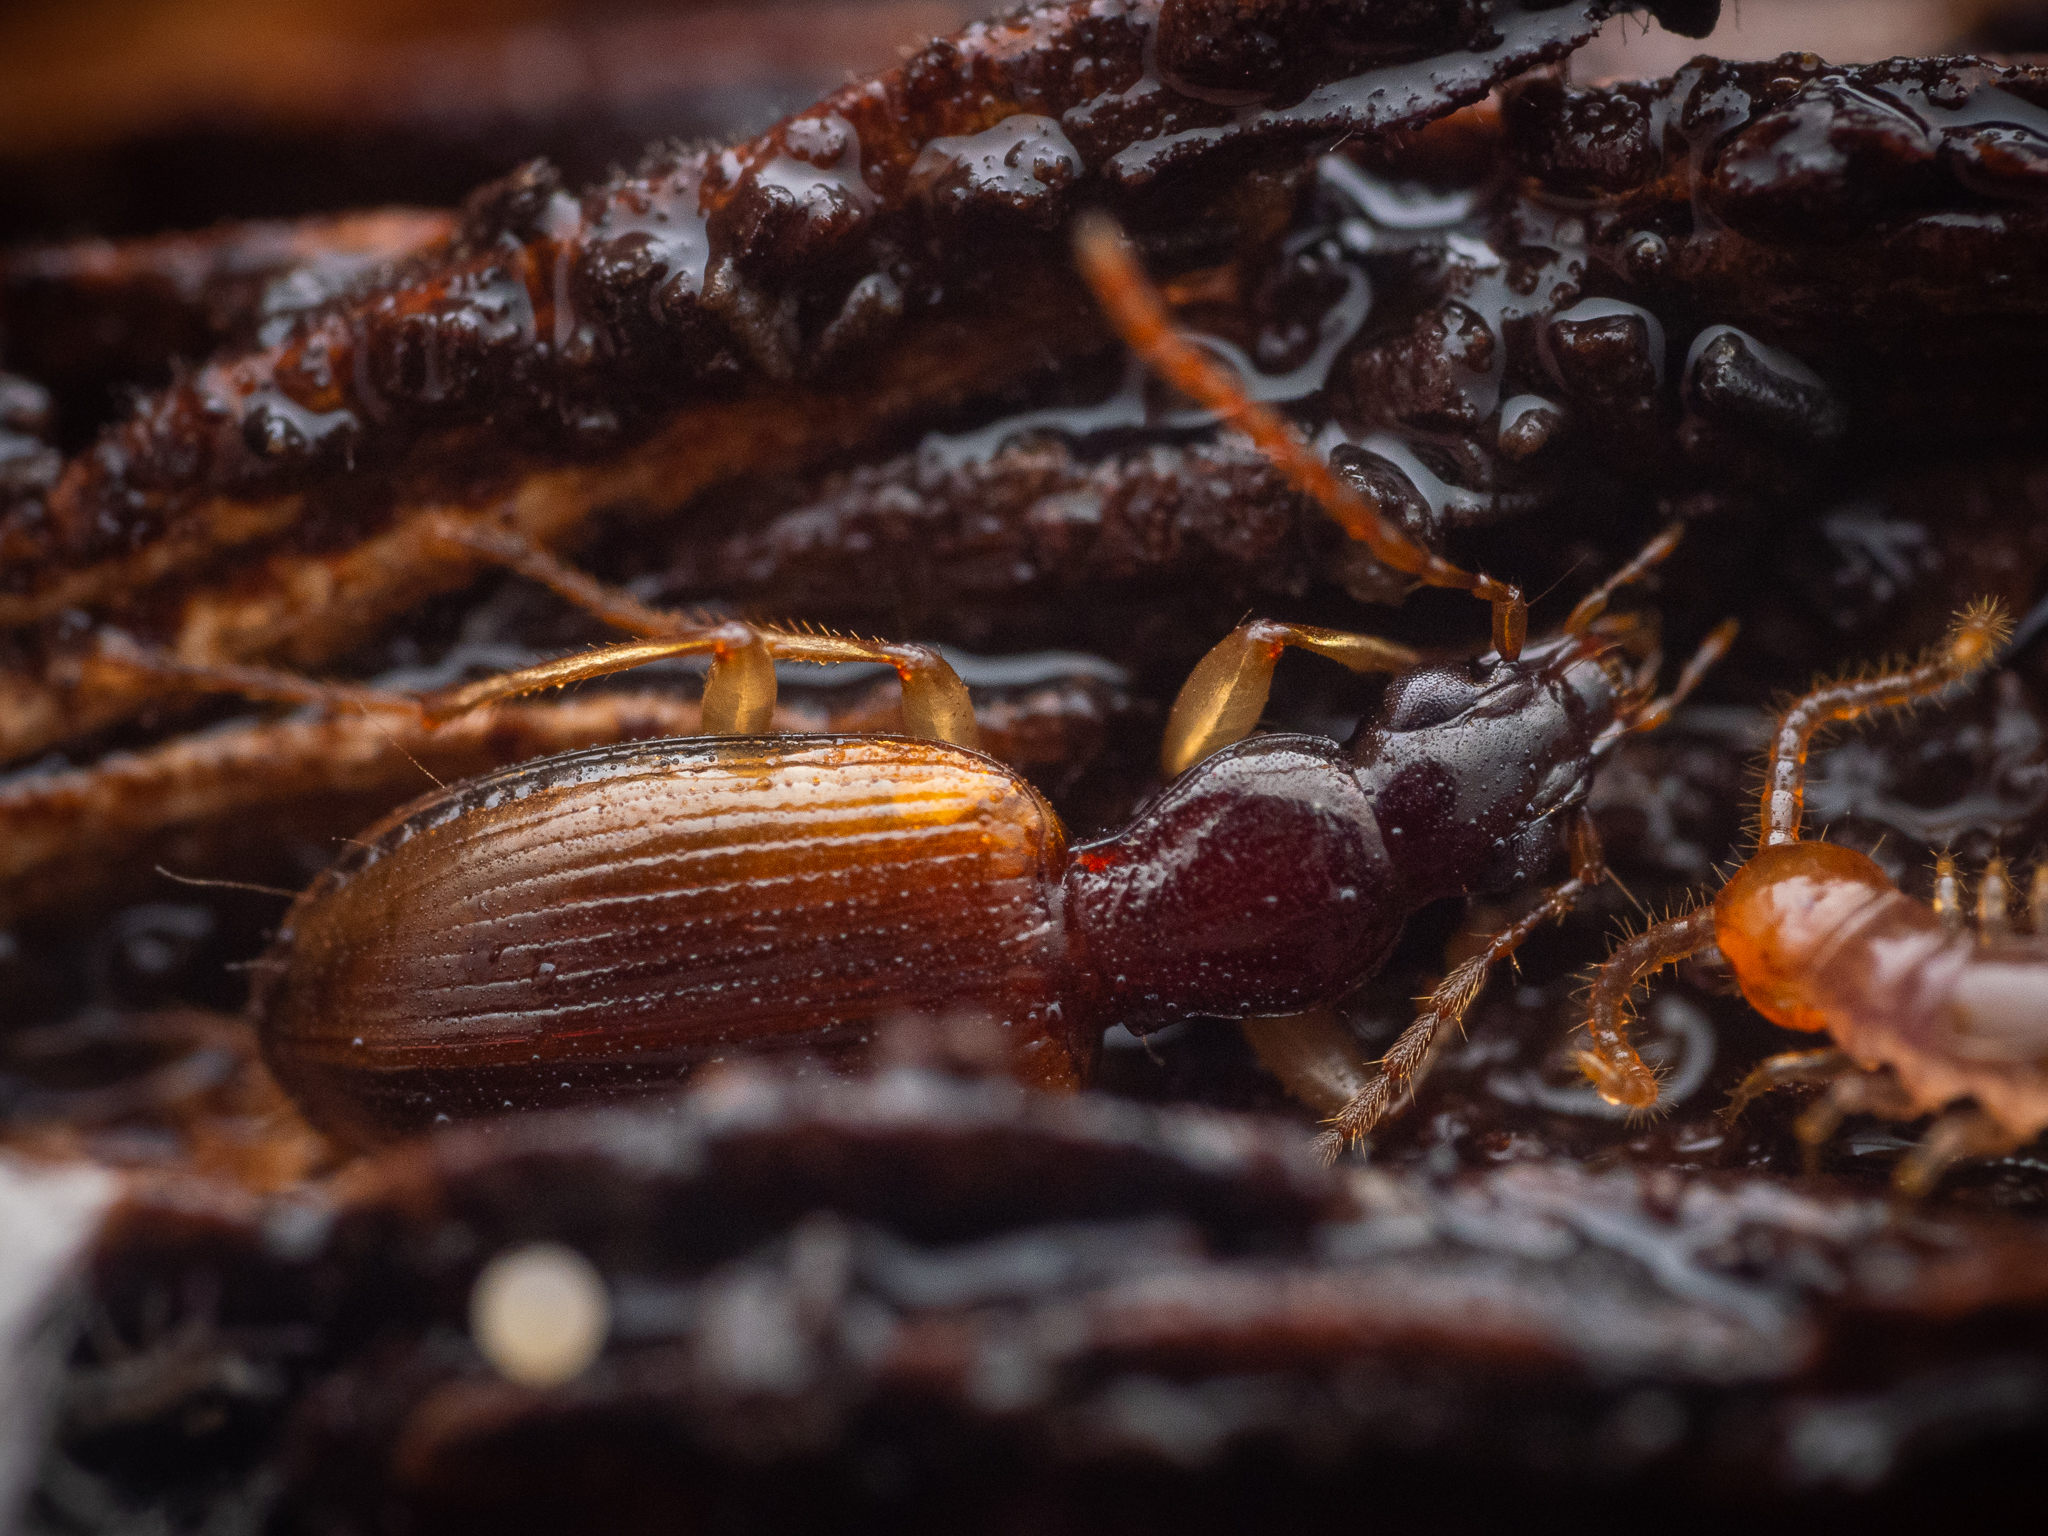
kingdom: Animalia
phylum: Arthropoda
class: Insecta
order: Coleoptera
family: Carabidae
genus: Oxypselaphus
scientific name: Oxypselaphus obscurus
